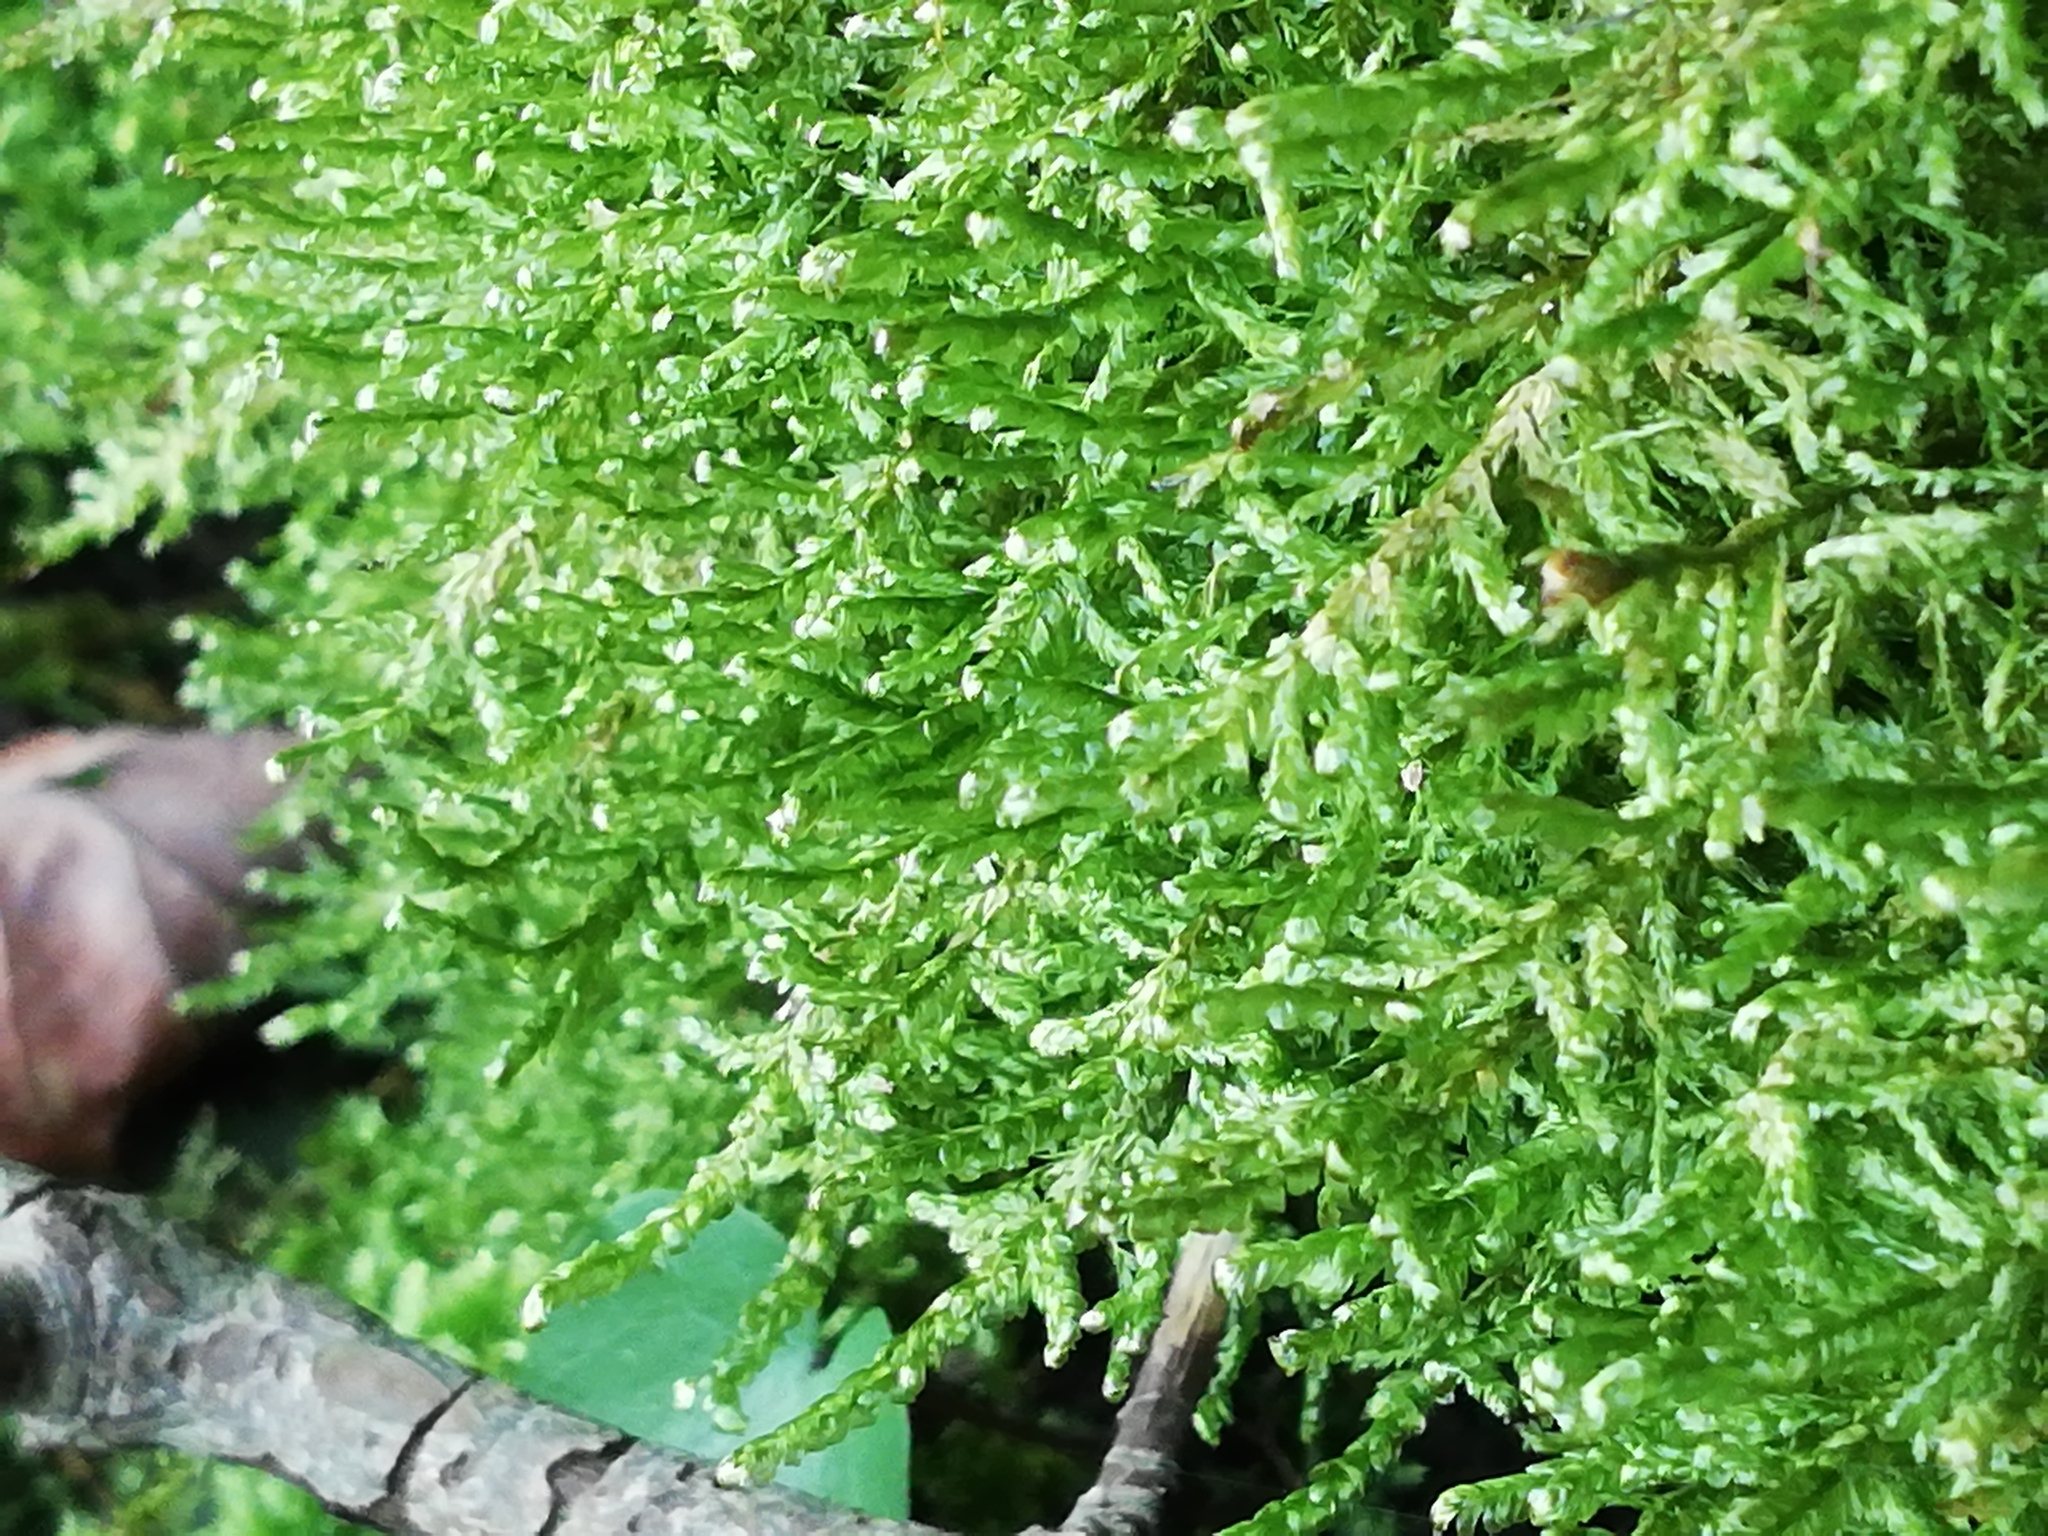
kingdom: Plantae
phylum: Bryophyta
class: Bryopsida
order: Hypnales
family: Neckeraceae
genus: Alleniella
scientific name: Alleniella complanata
